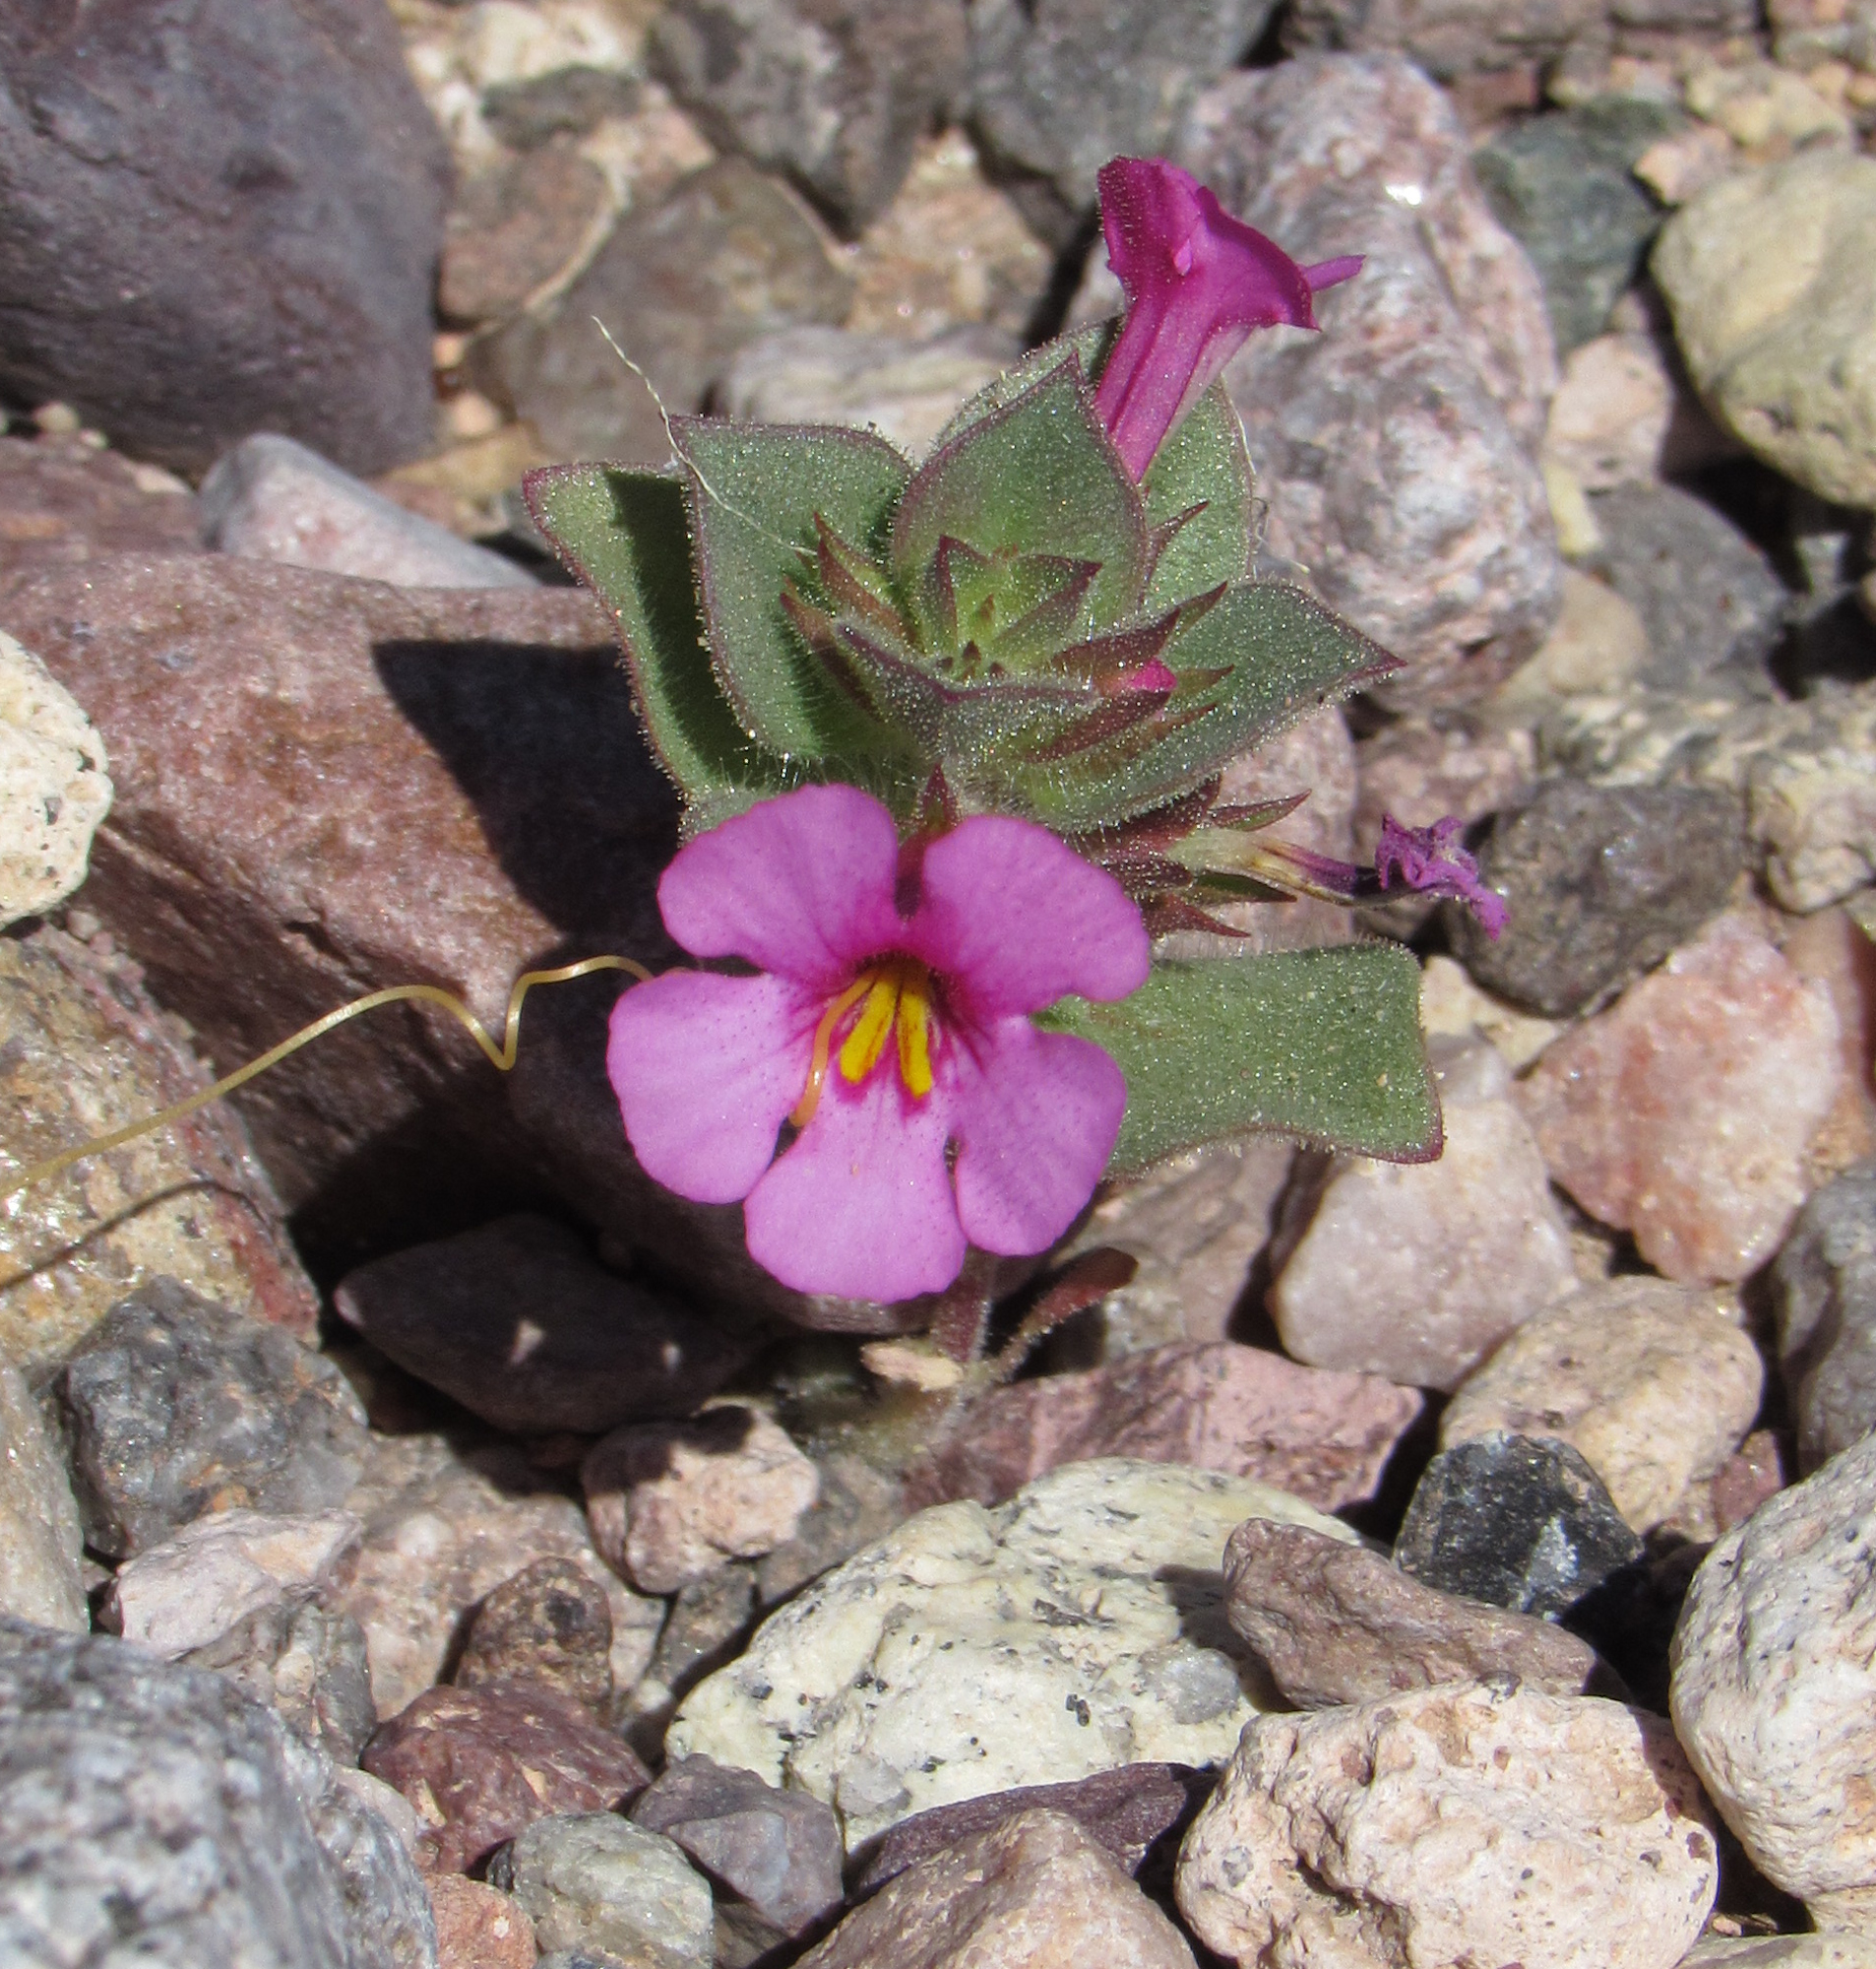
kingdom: Plantae
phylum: Tracheophyta
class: Magnoliopsida
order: Lamiales
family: Phrymaceae
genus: Diplacus
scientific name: Diplacus bigelovii
